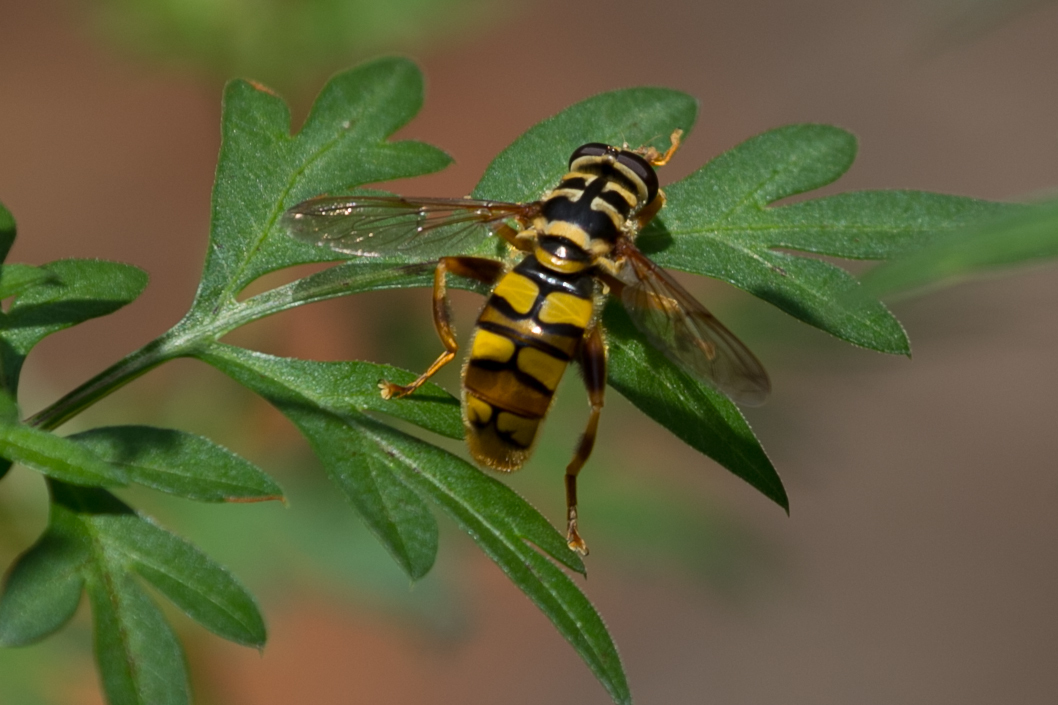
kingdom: Animalia
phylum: Arthropoda
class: Insecta
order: Diptera
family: Syrphidae
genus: Milesia
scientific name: Milesia virginiensis
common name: Virginia giant
